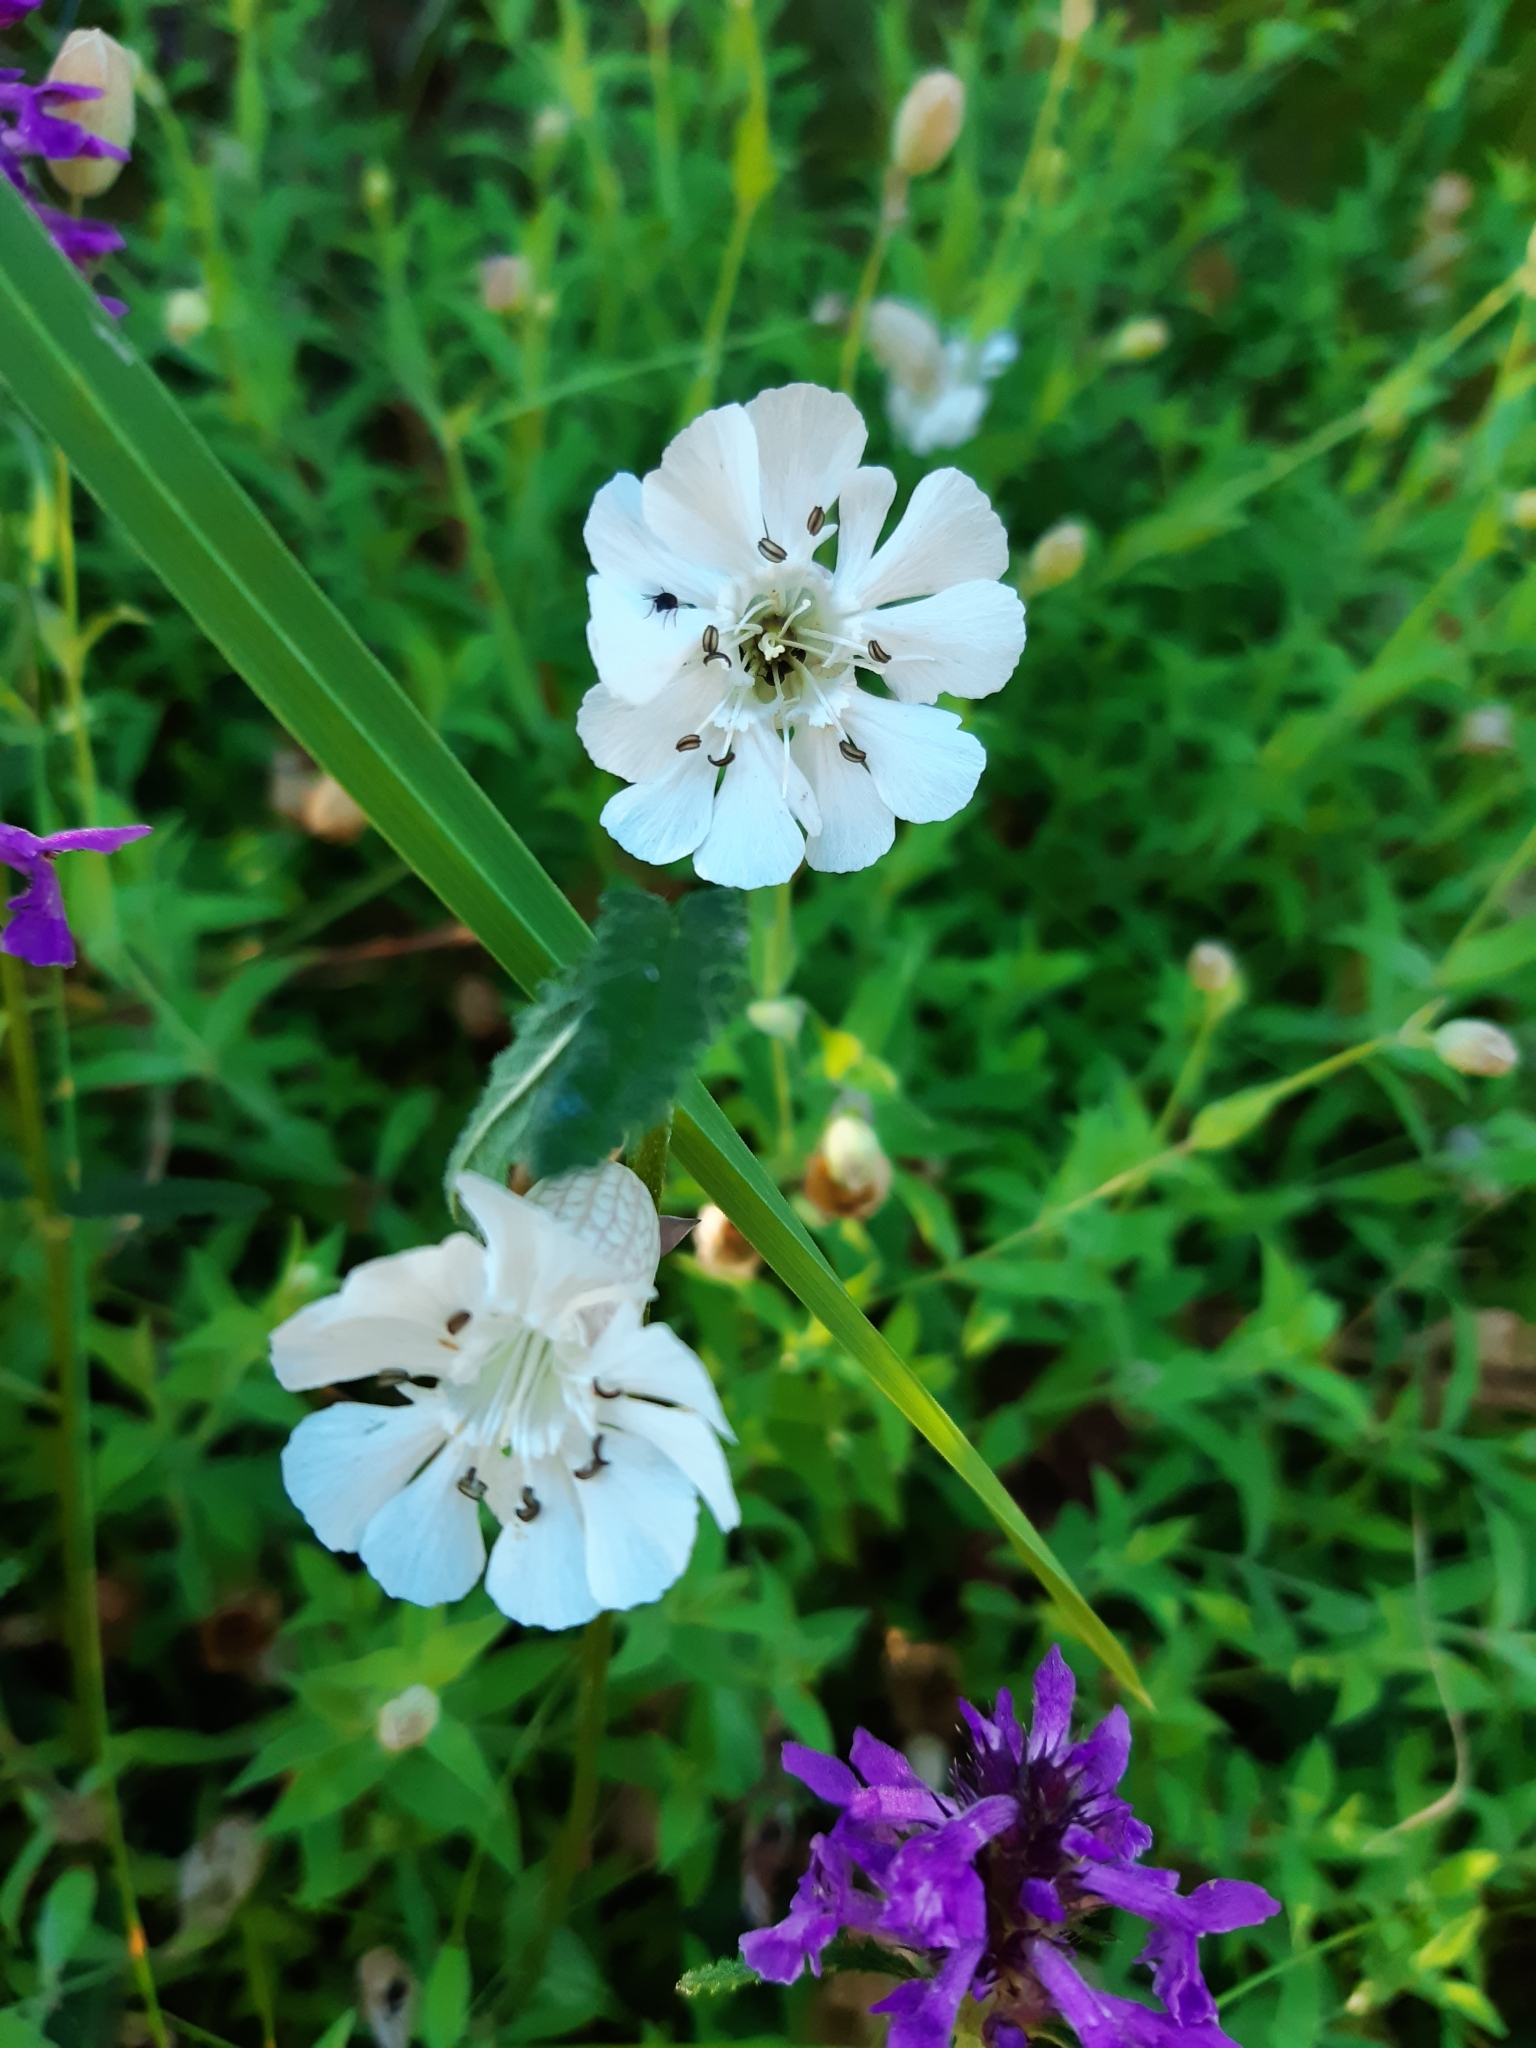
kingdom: Plantae
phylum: Tracheophyta
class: Magnoliopsida
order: Caryophyllales
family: Caryophyllaceae
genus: Silene
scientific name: Silene uniflora
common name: Sea campion
